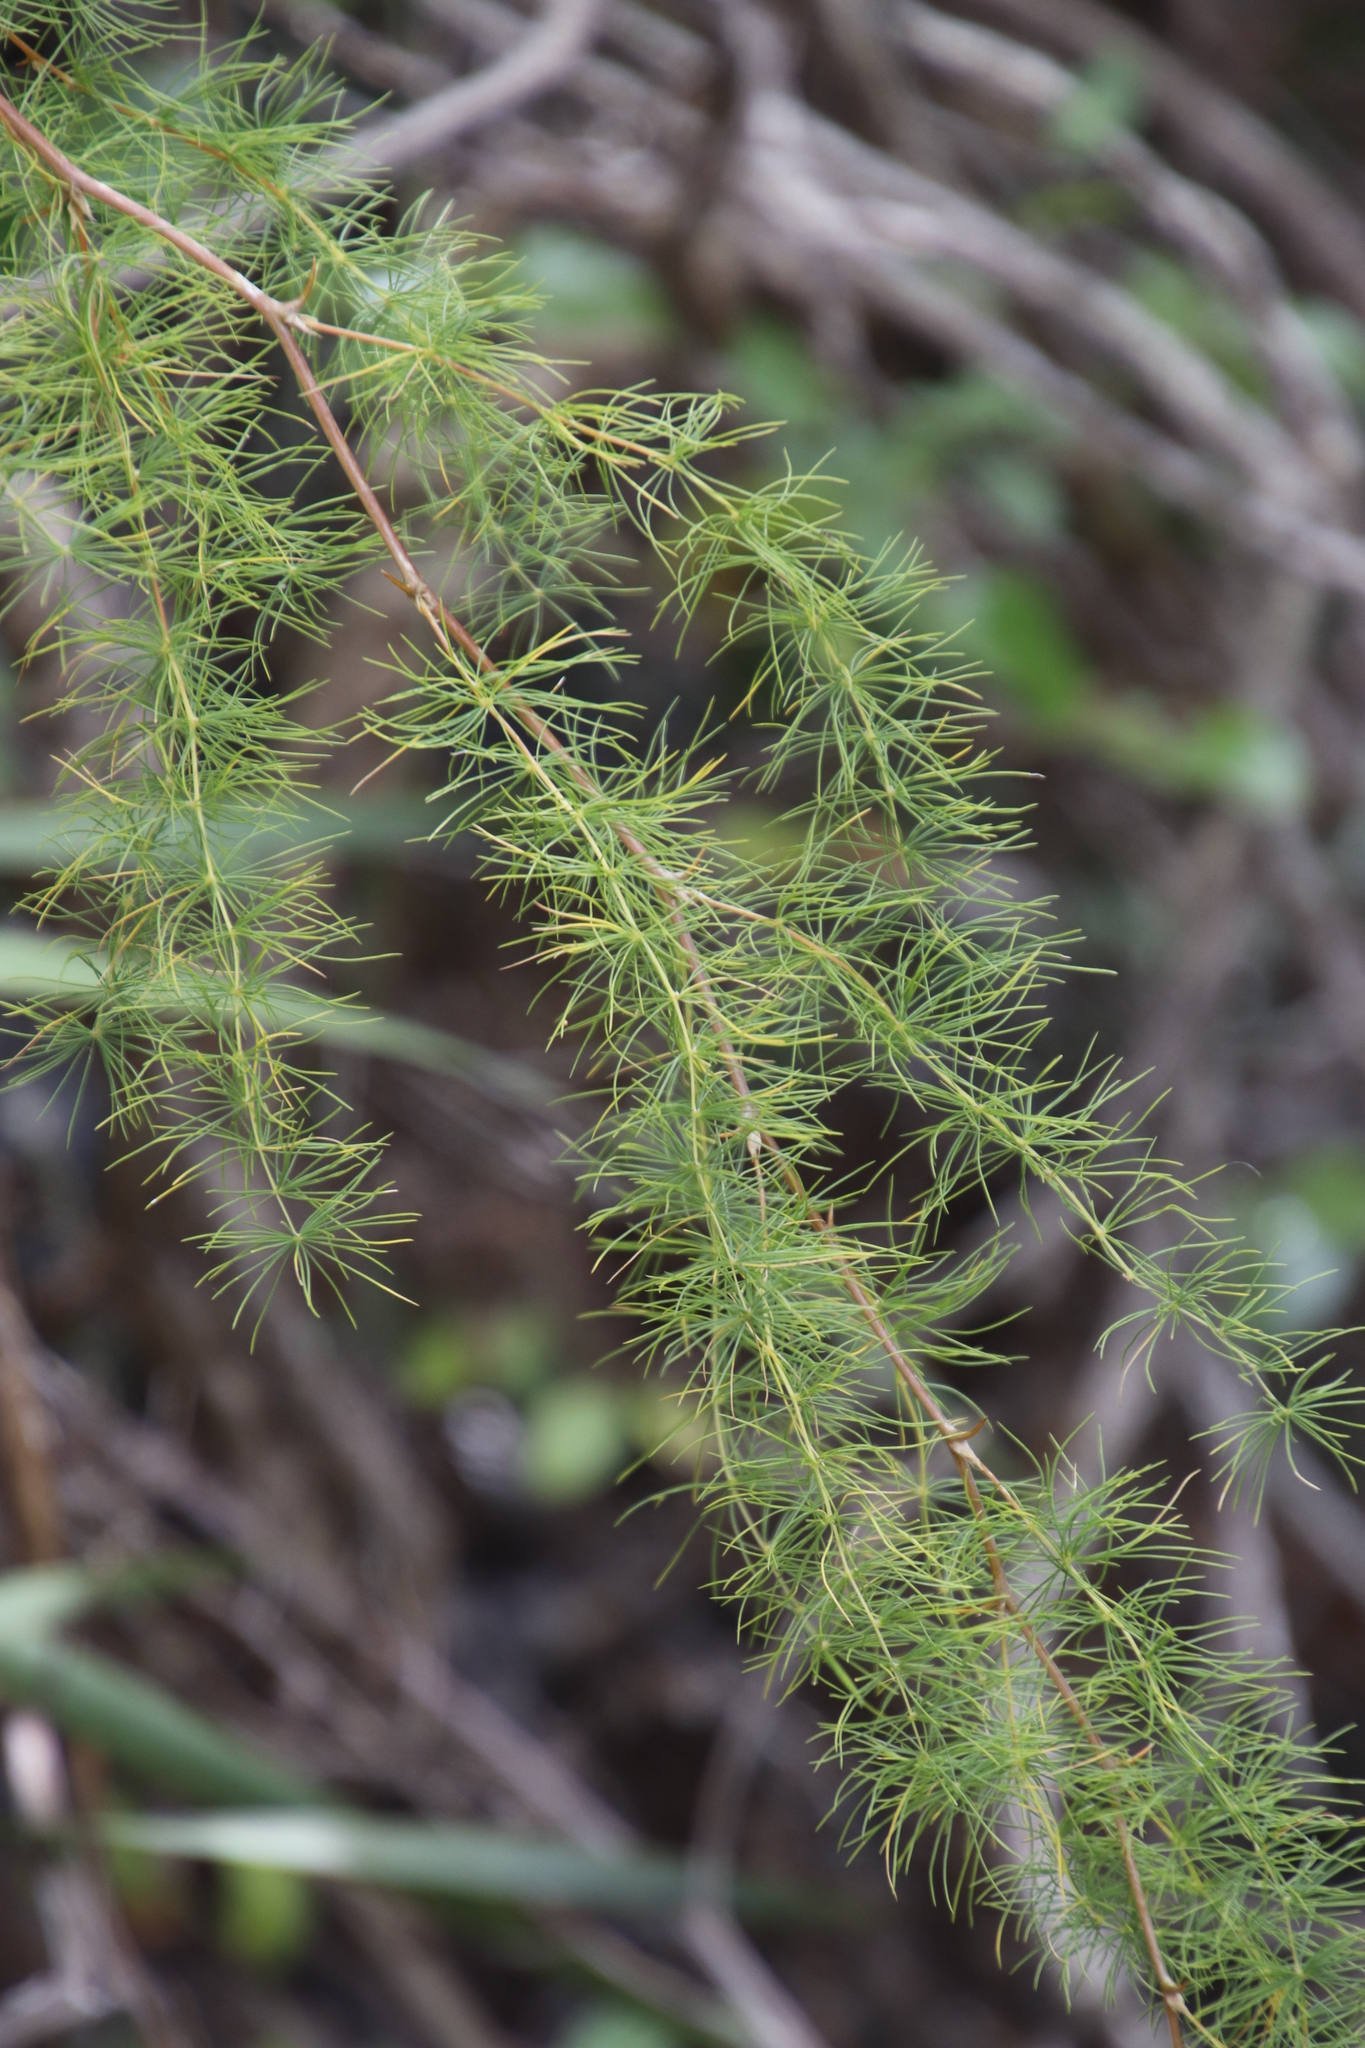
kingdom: Plantae
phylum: Tracheophyta
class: Liliopsida
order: Asparagales
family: Asparagaceae
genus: Asparagus
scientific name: Asparagus rubicundus
